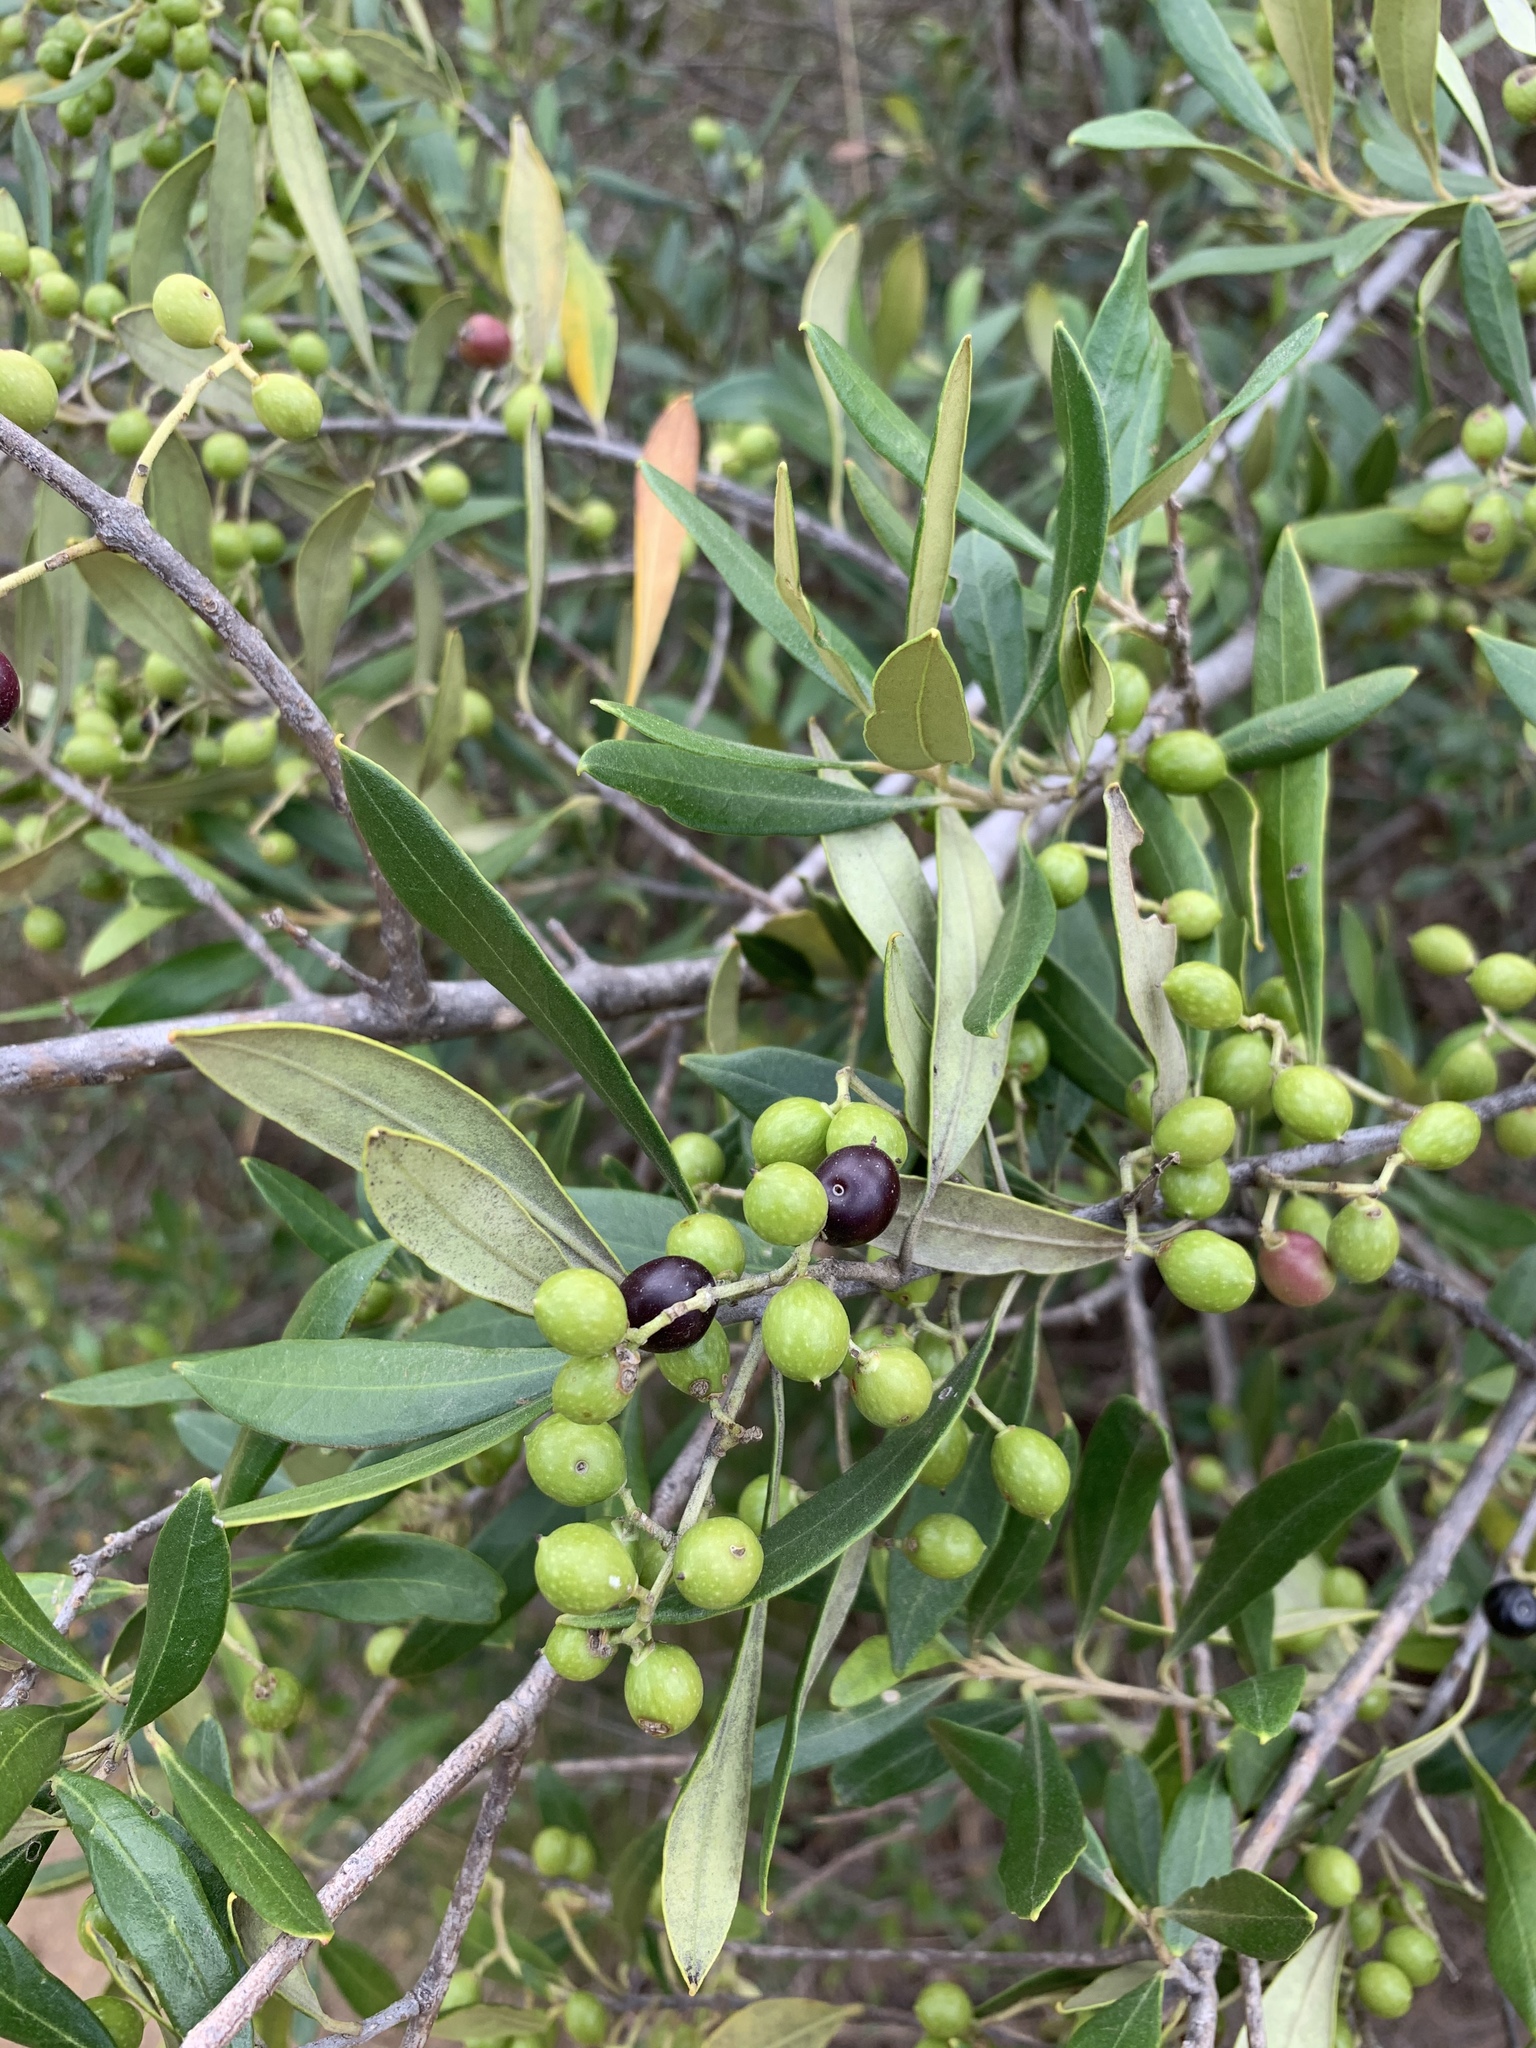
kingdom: Plantae
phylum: Tracheophyta
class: Magnoliopsida
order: Lamiales
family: Oleaceae
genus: Olea
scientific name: Olea europaea
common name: Olive
